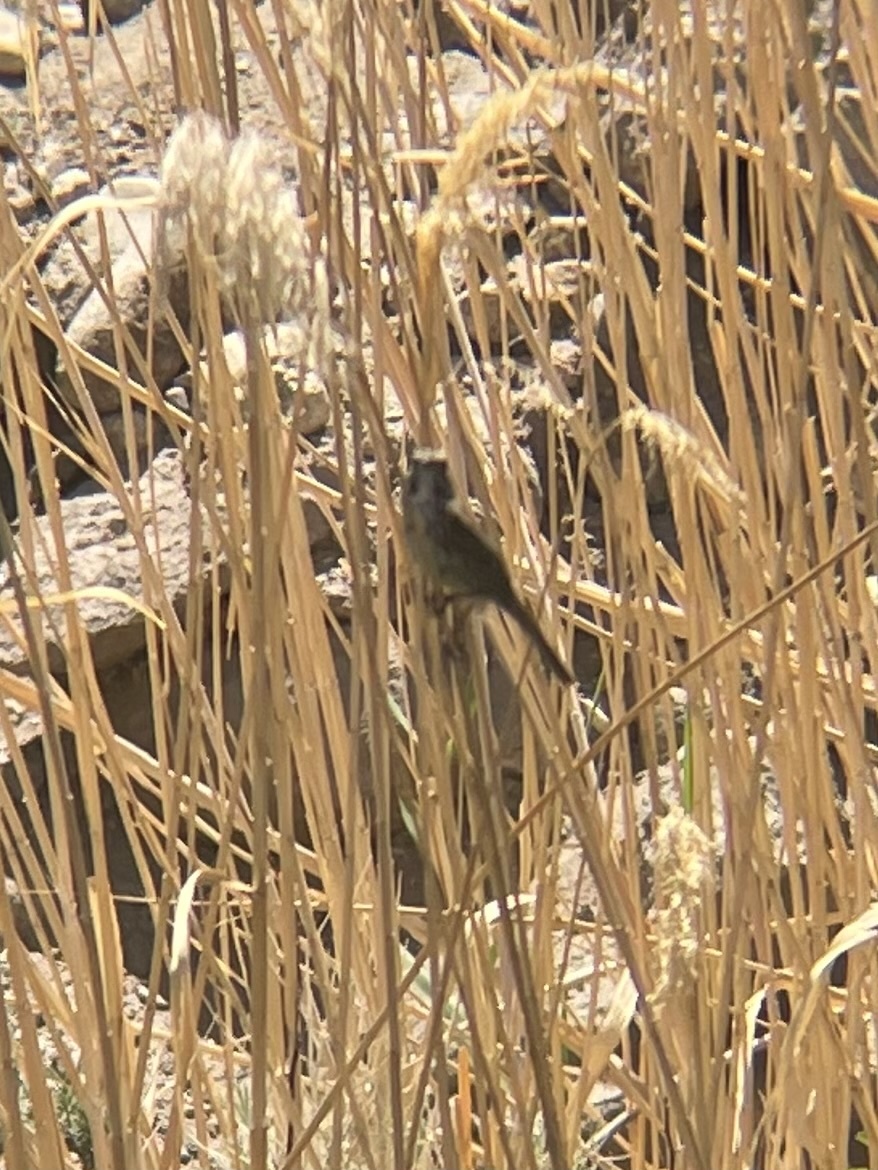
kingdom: Animalia
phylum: Chordata
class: Aves
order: Passeriformes
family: Passerellidae
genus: Melospiza
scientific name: Melospiza melodia
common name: Song sparrow
